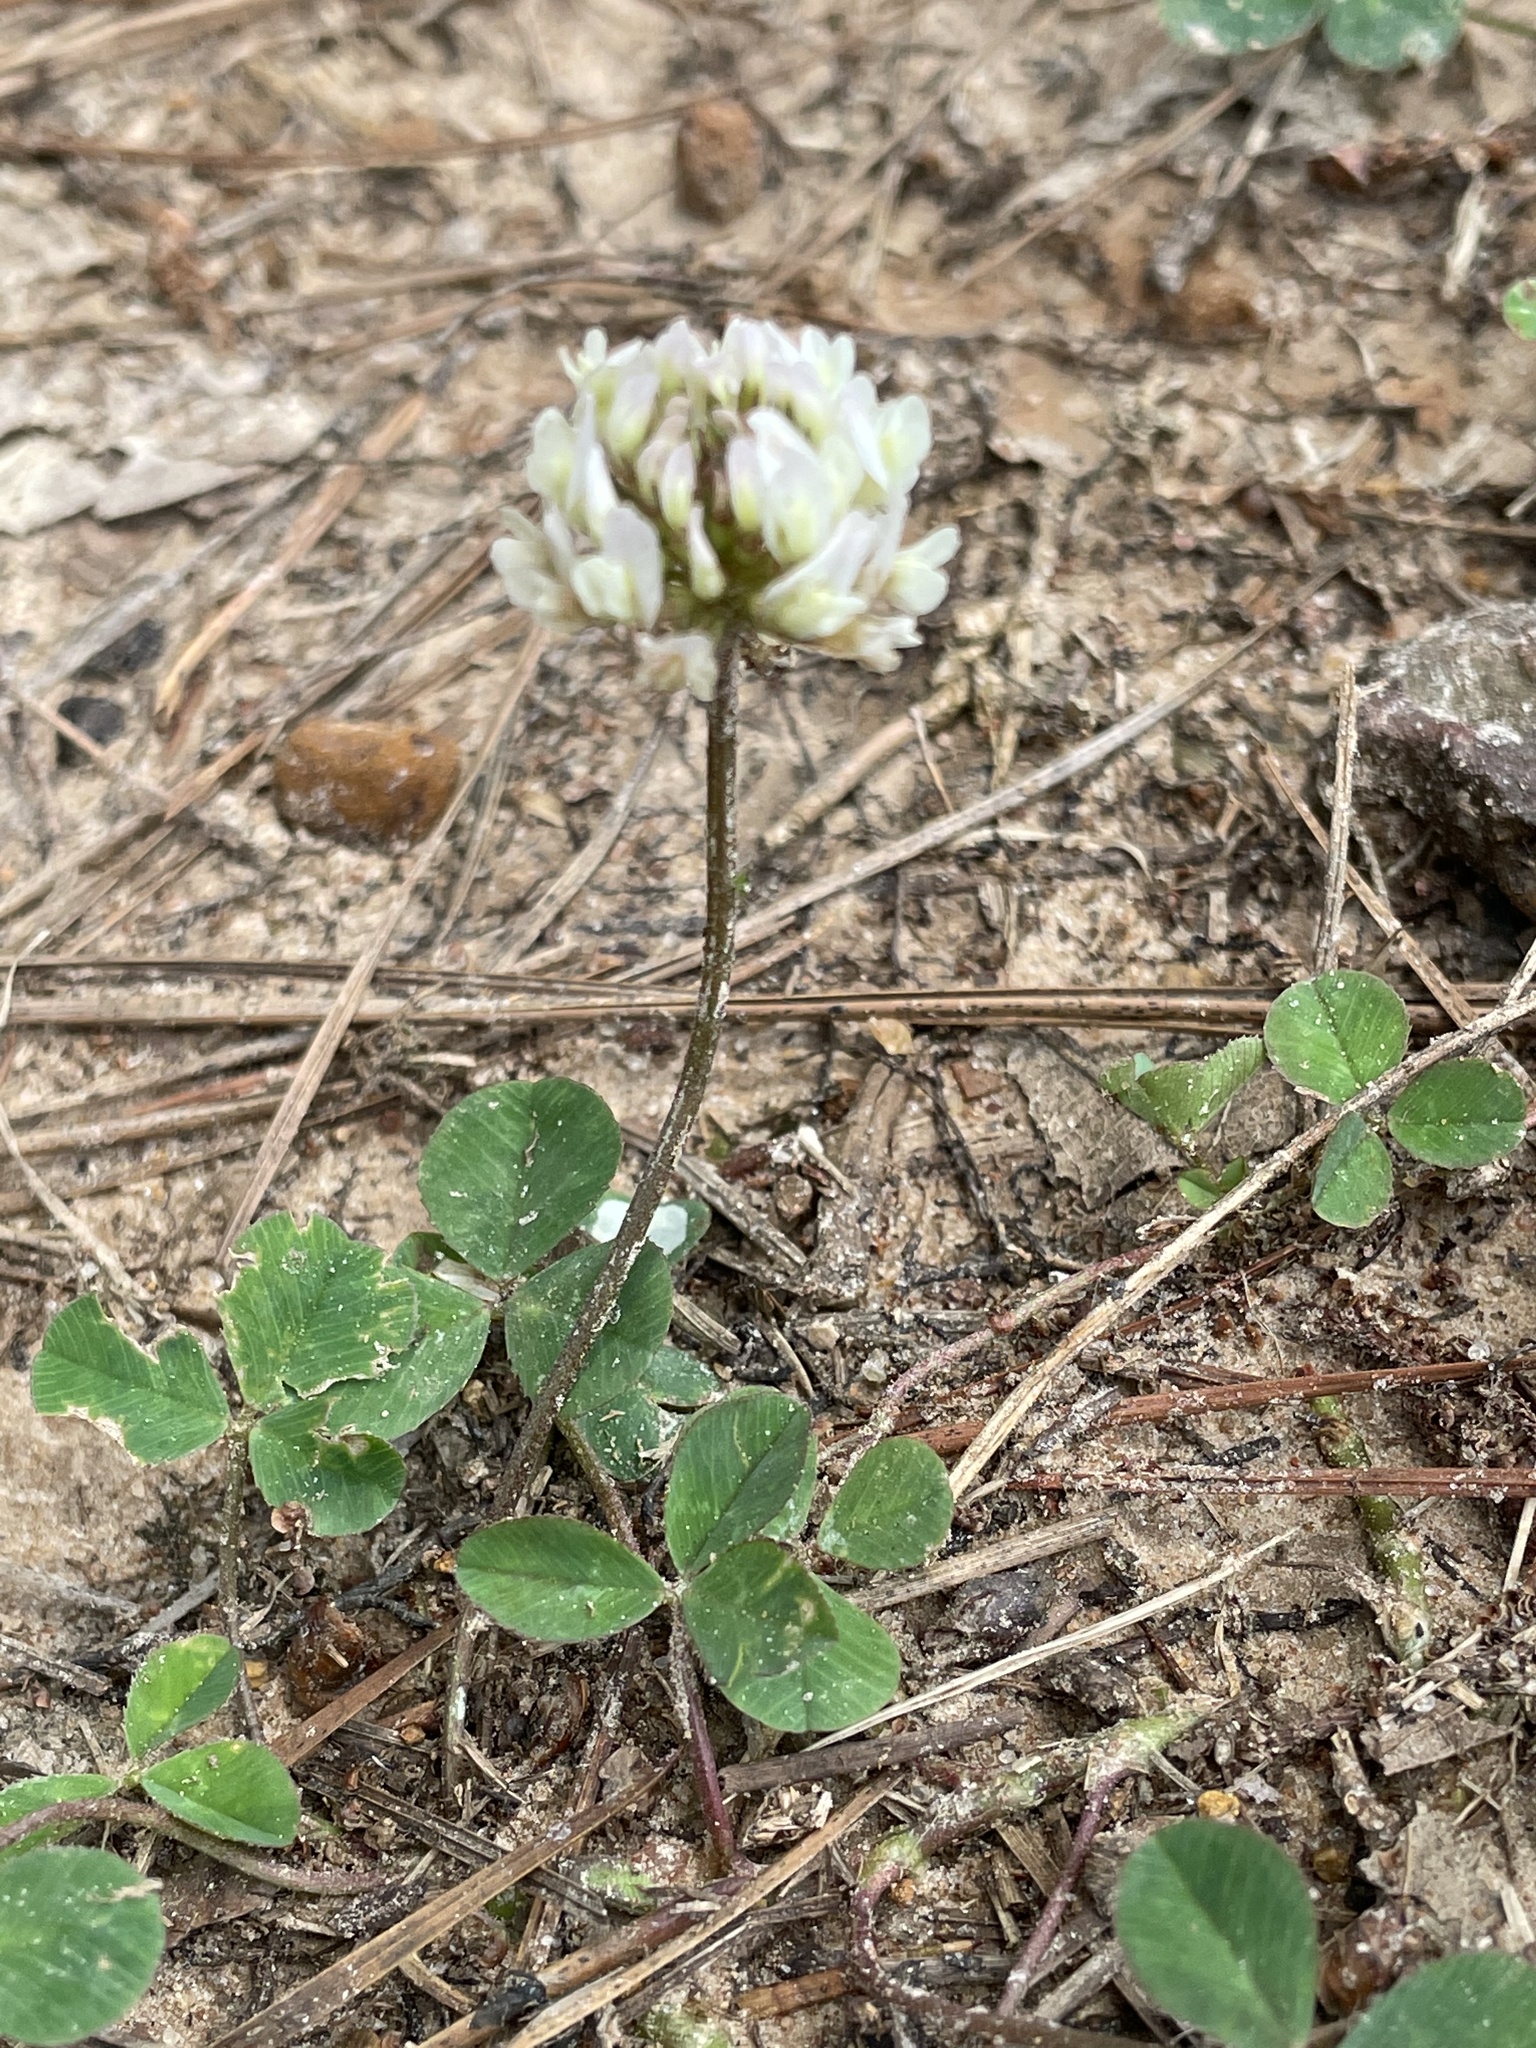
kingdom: Plantae
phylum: Tracheophyta
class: Magnoliopsida
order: Fabales
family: Fabaceae
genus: Trifolium
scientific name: Trifolium repens
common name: White clover
